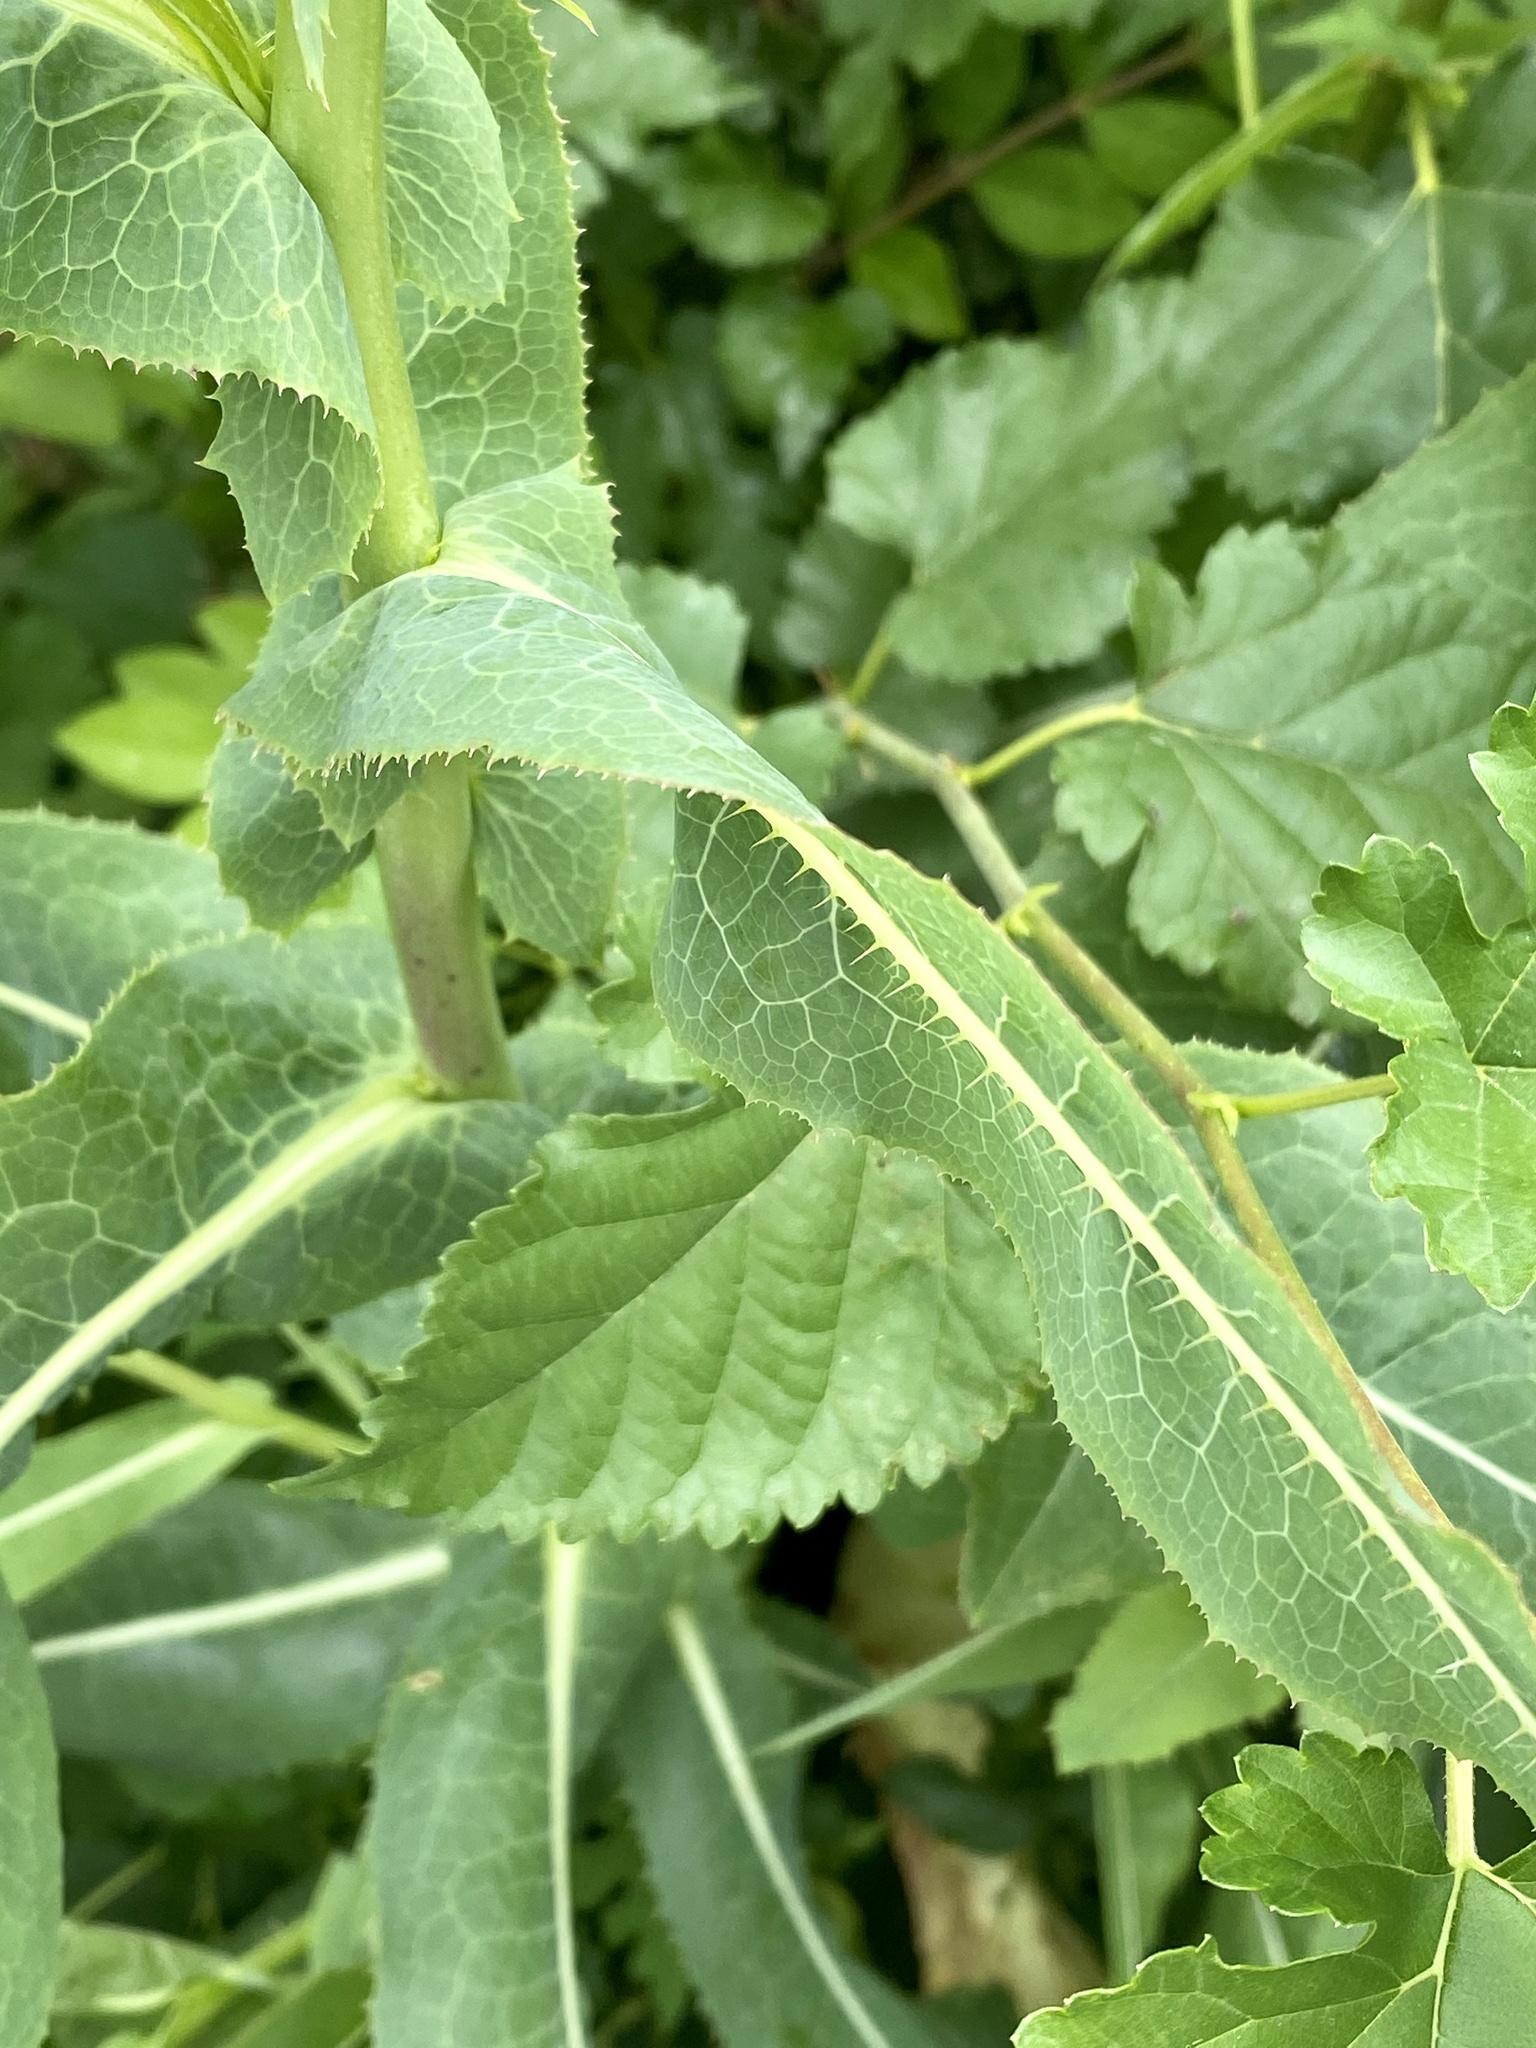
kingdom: Plantae
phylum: Tracheophyta
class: Magnoliopsida
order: Asterales
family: Asteraceae
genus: Lactuca
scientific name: Lactuca serriola
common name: Prickly lettuce
